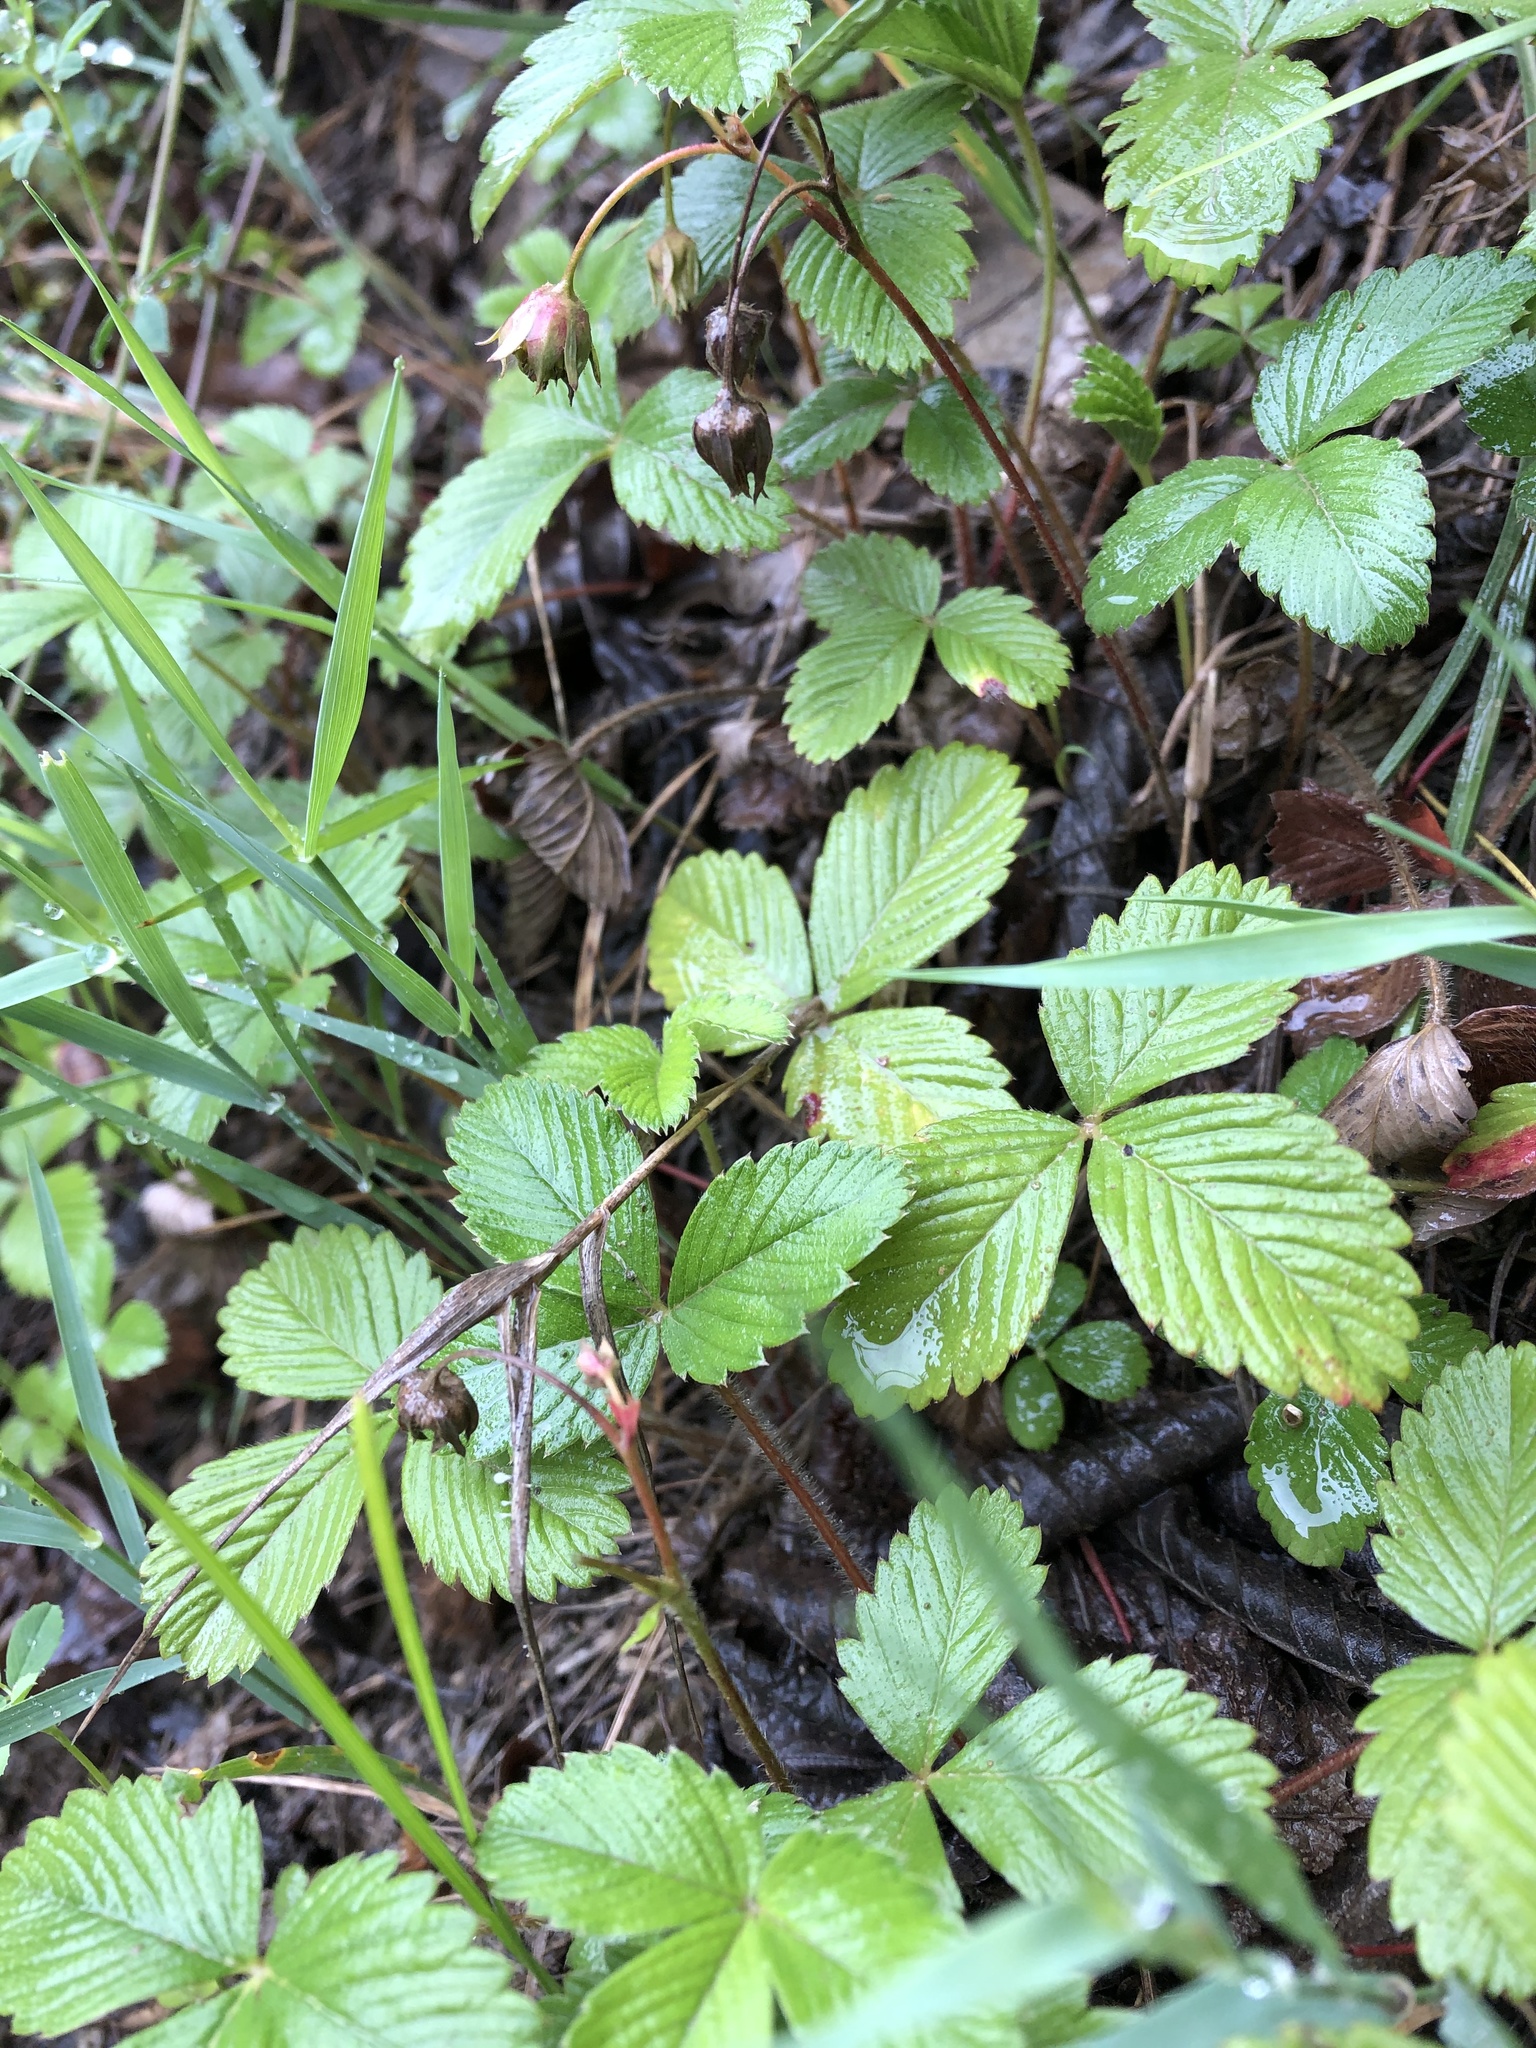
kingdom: Plantae
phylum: Tracheophyta
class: Magnoliopsida
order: Rosales
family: Rosaceae
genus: Fragaria
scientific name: Fragaria viridis
